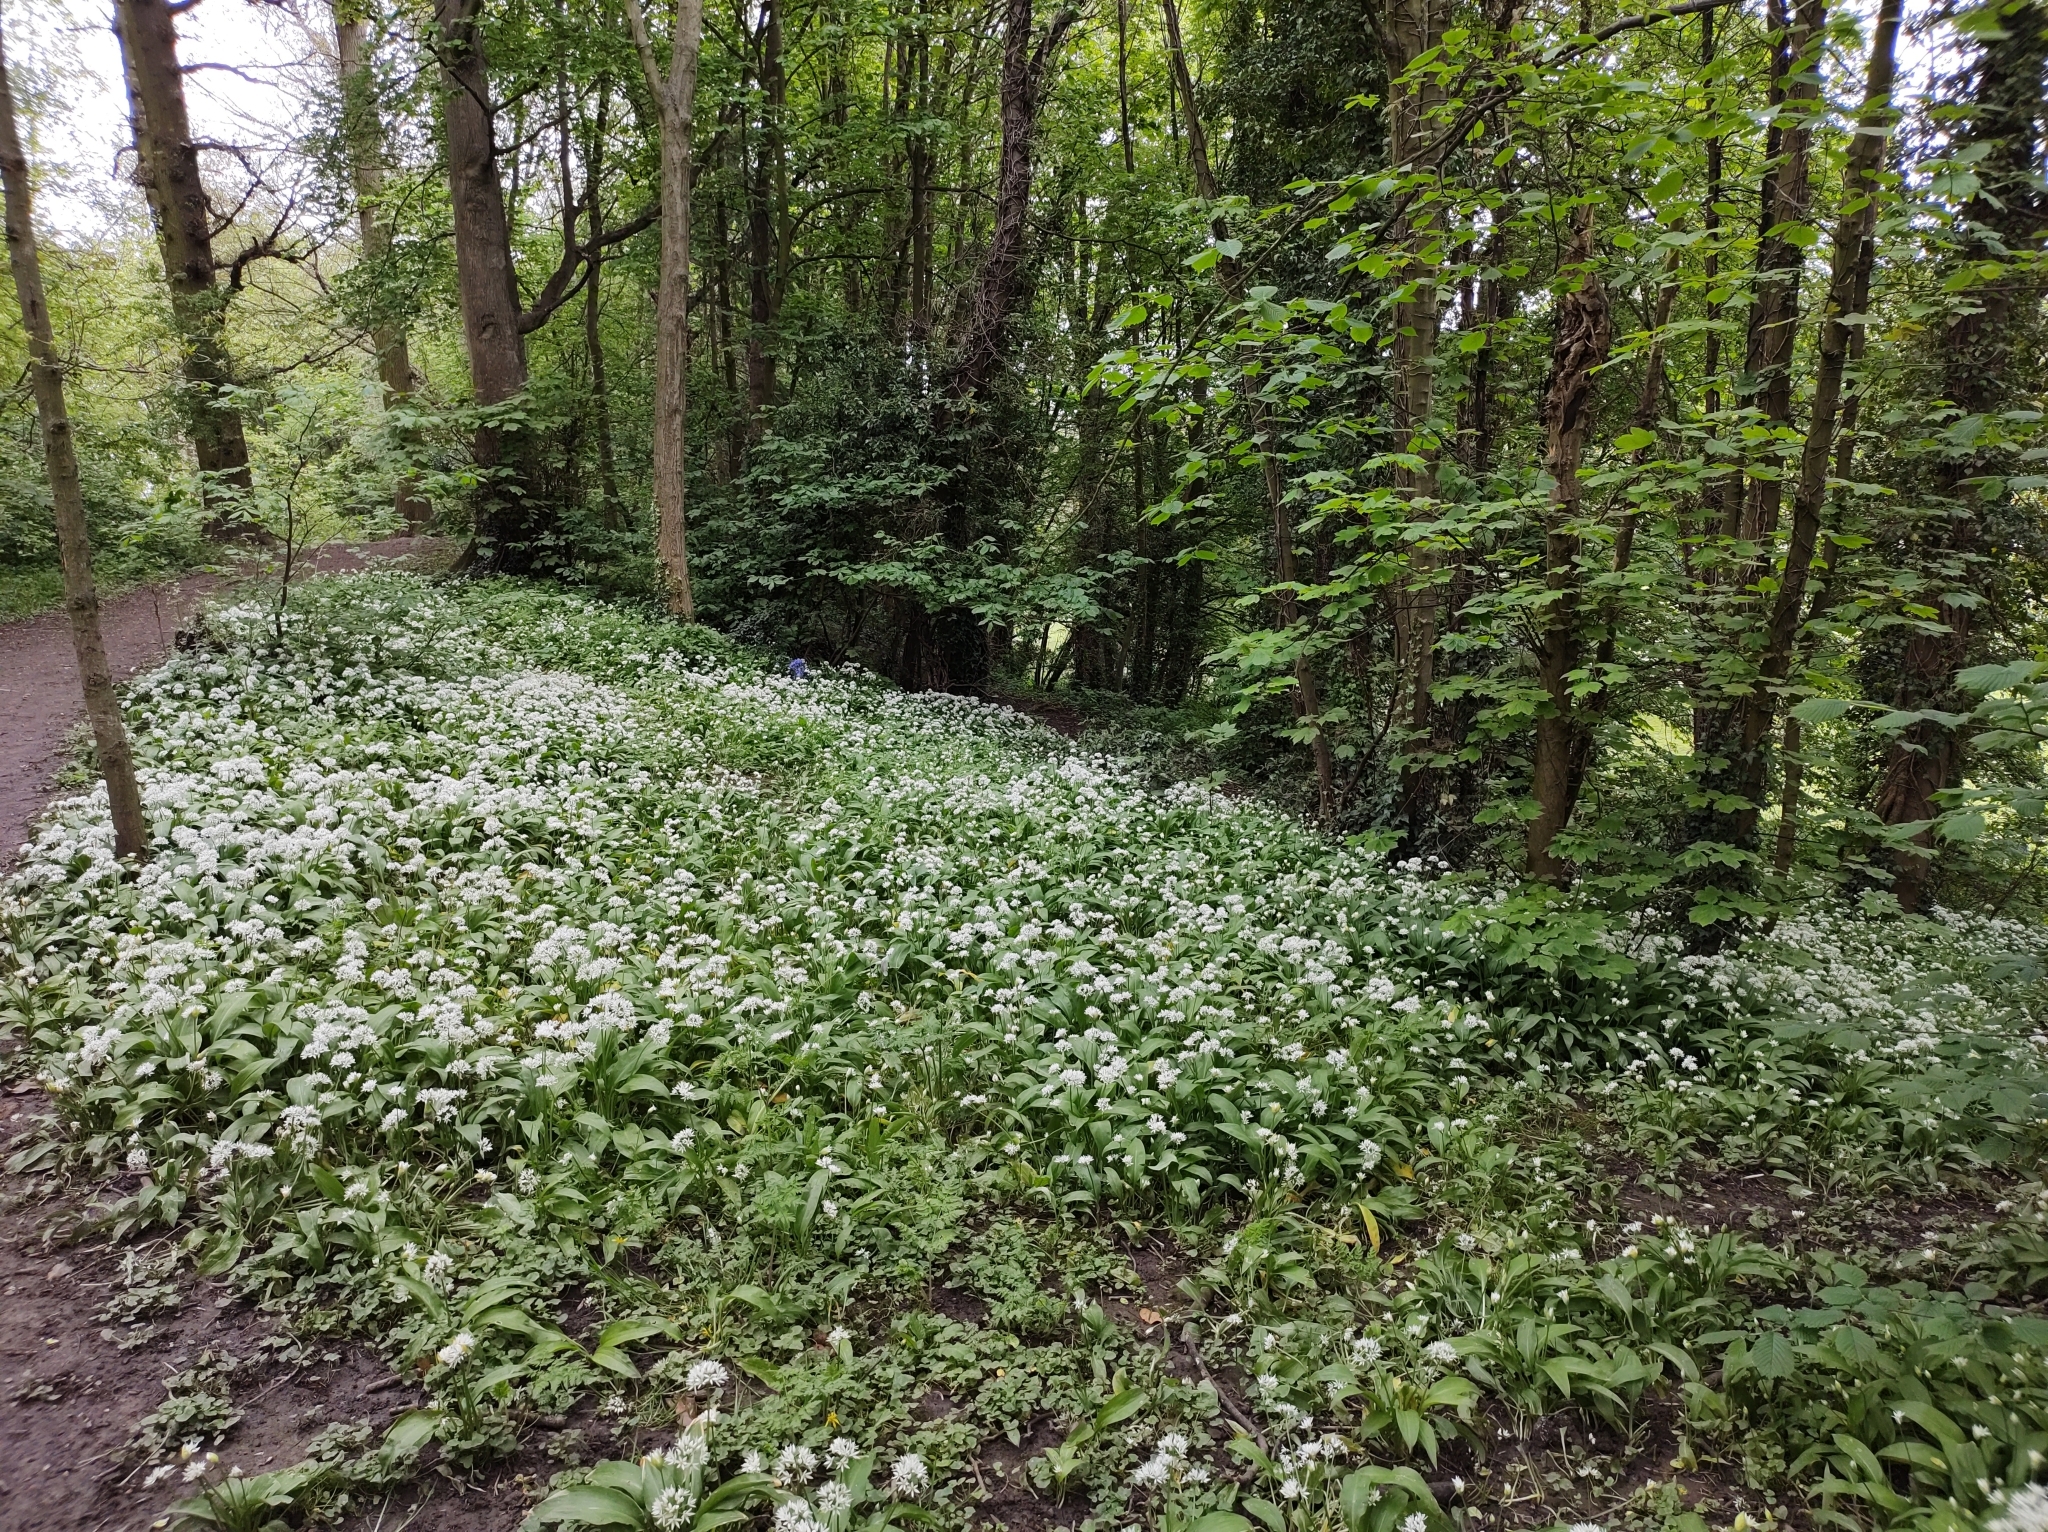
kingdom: Plantae
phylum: Tracheophyta
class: Liliopsida
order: Asparagales
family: Amaryllidaceae
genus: Allium
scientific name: Allium ursinum
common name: Ramsons
